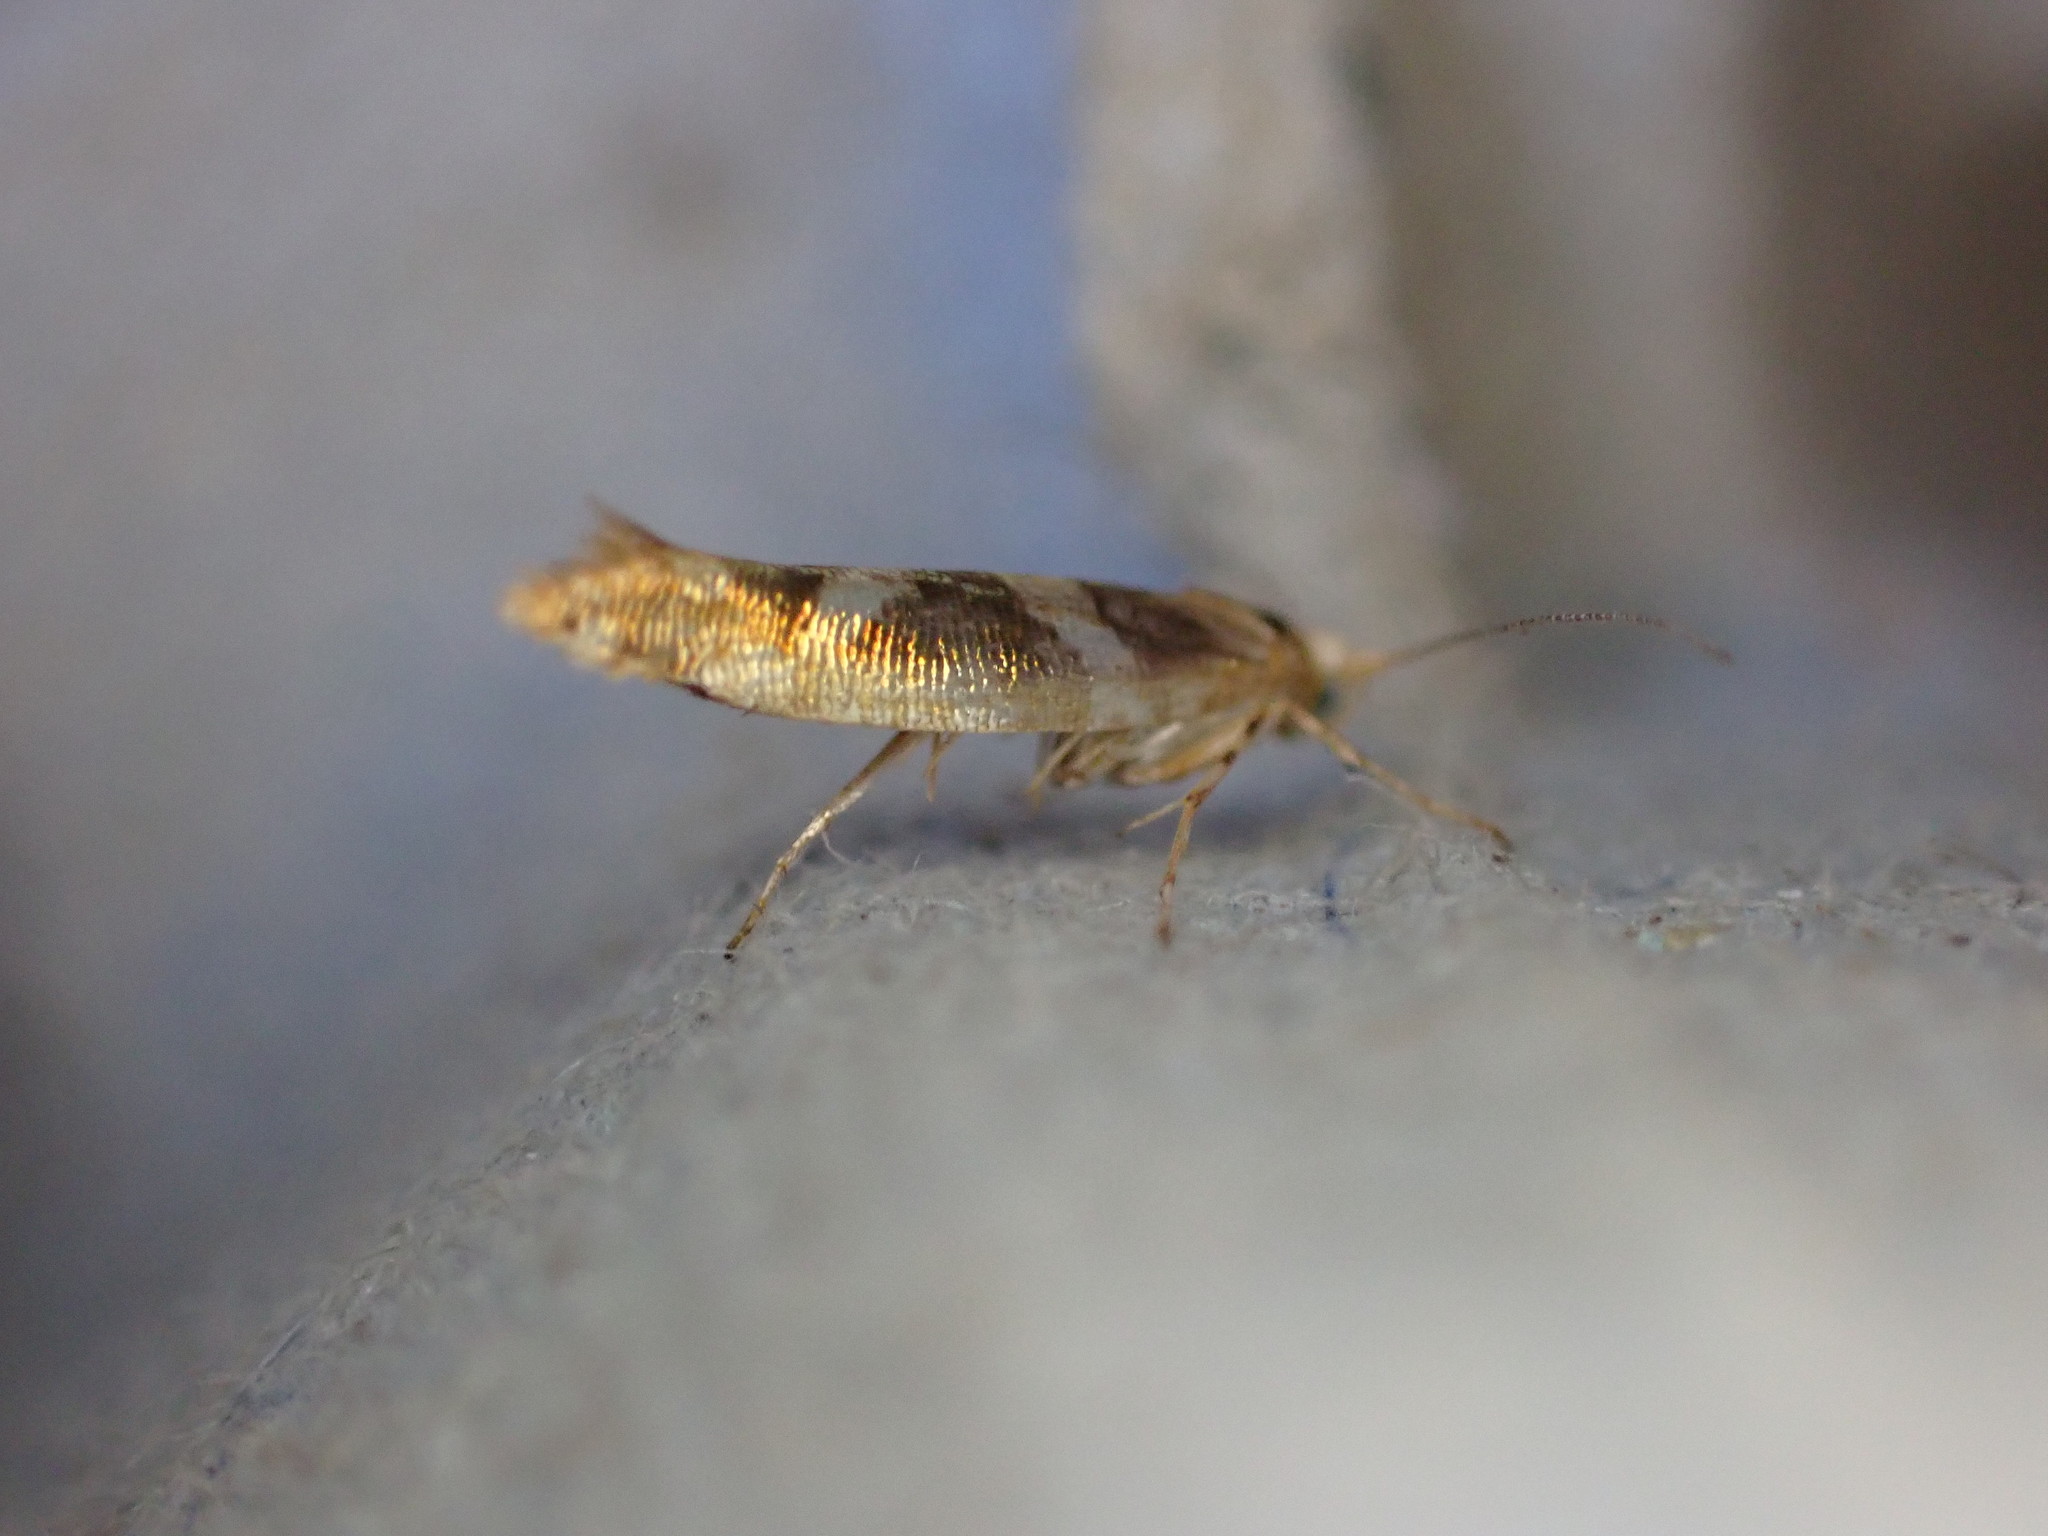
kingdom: Animalia
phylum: Arthropoda
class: Insecta
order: Lepidoptera
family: Argyresthiidae
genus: Argyresthia
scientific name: Argyresthia goedartella
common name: Golden argent
